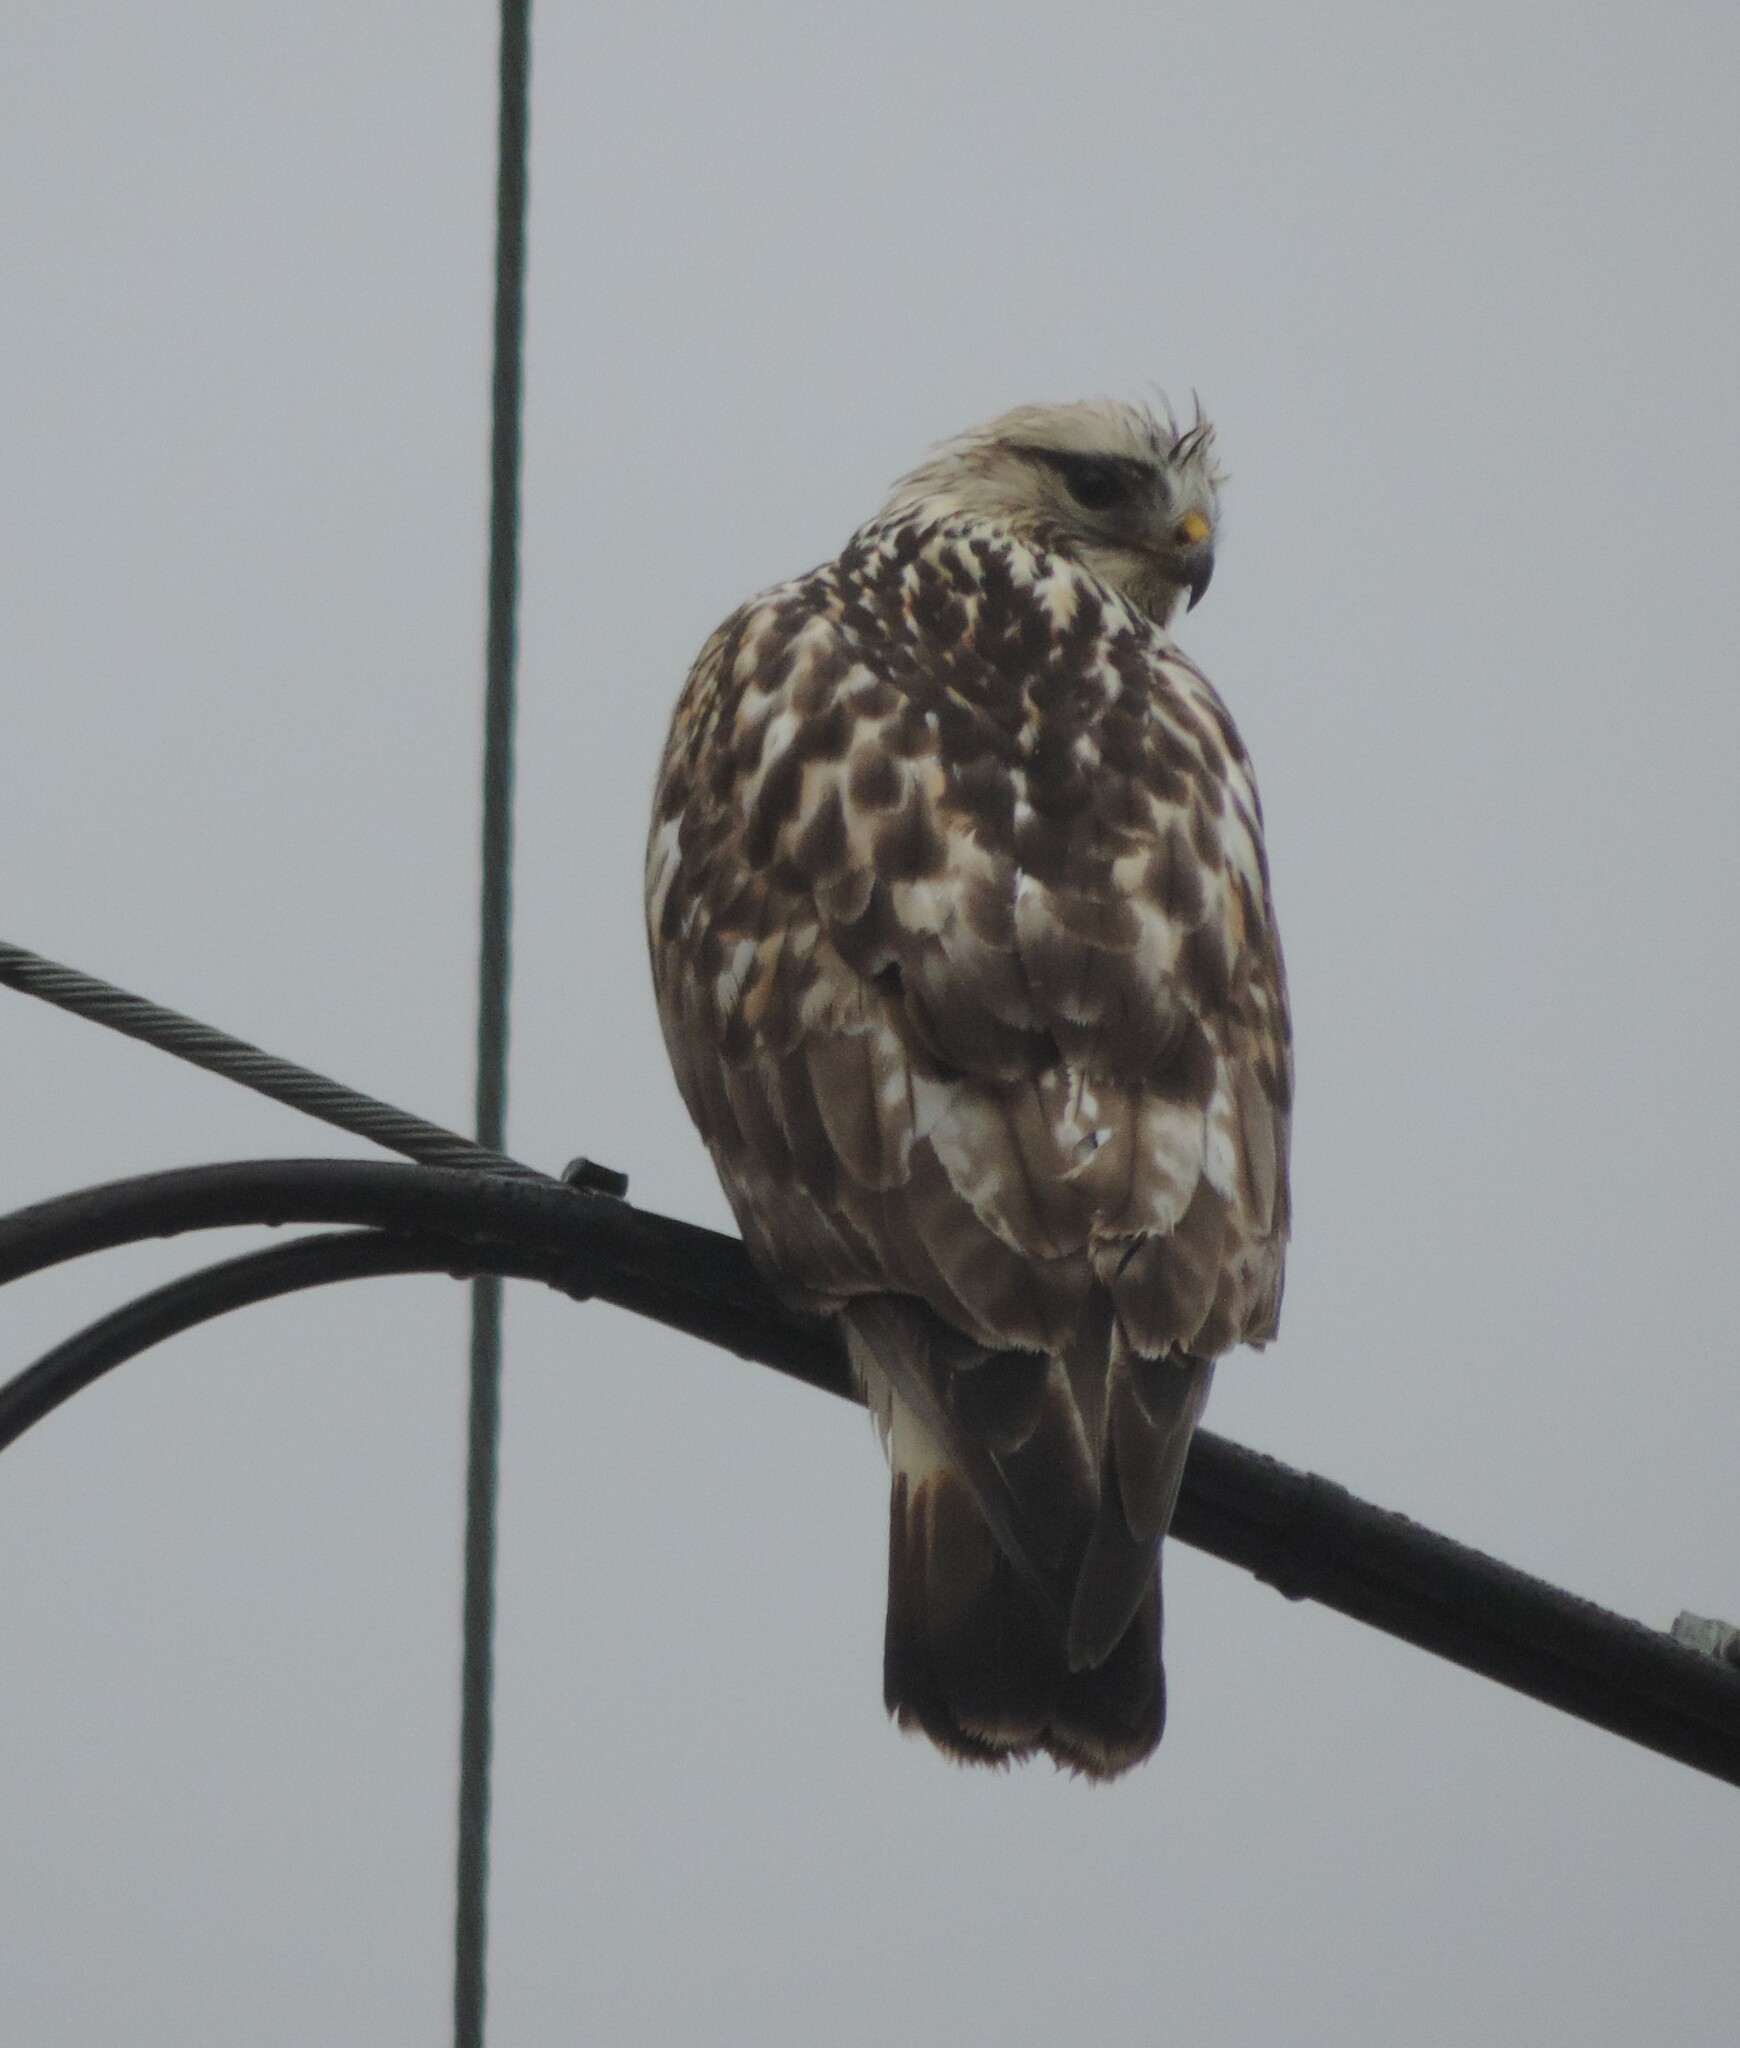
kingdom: Animalia
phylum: Chordata
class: Aves
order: Accipitriformes
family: Accipitridae
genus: Buteo
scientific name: Buteo lagopus
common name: Rough-legged buzzard
